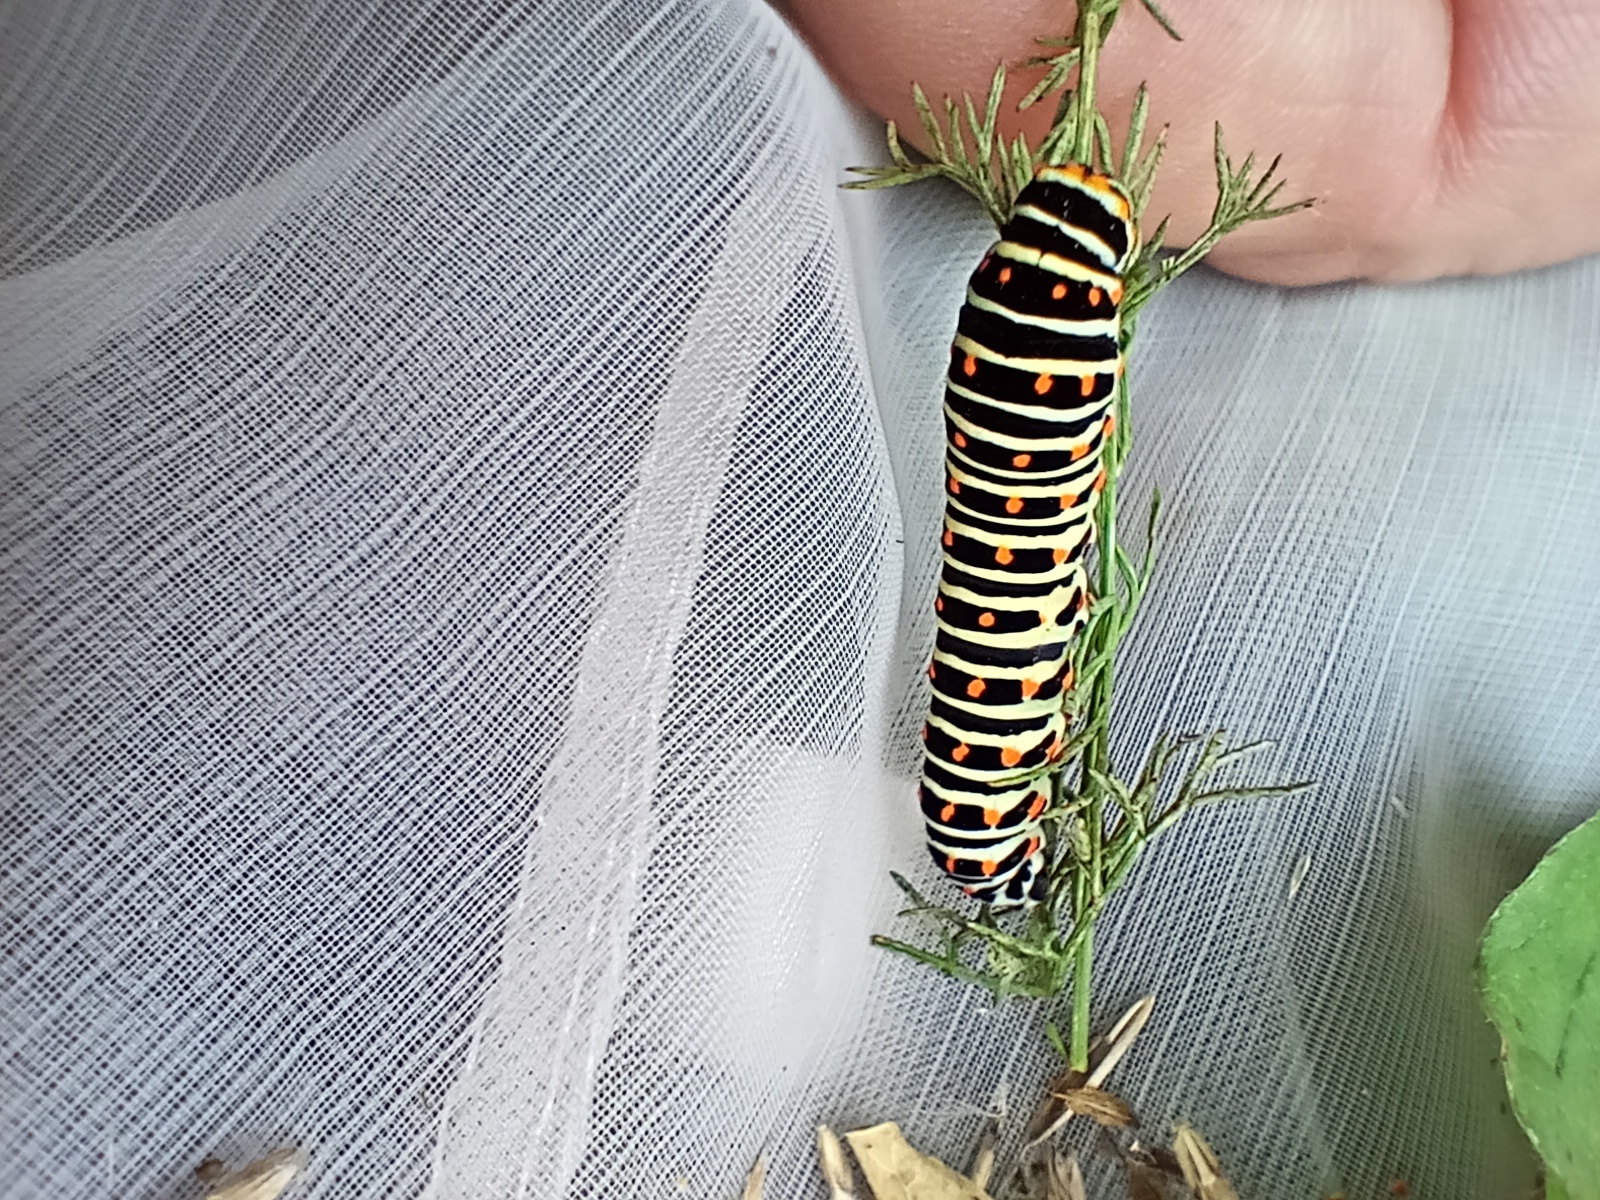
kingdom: Animalia
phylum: Arthropoda
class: Insecta
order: Lepidoptera
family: Papilionidae
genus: Papilio
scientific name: Papilio machaon
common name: Swallowtail
